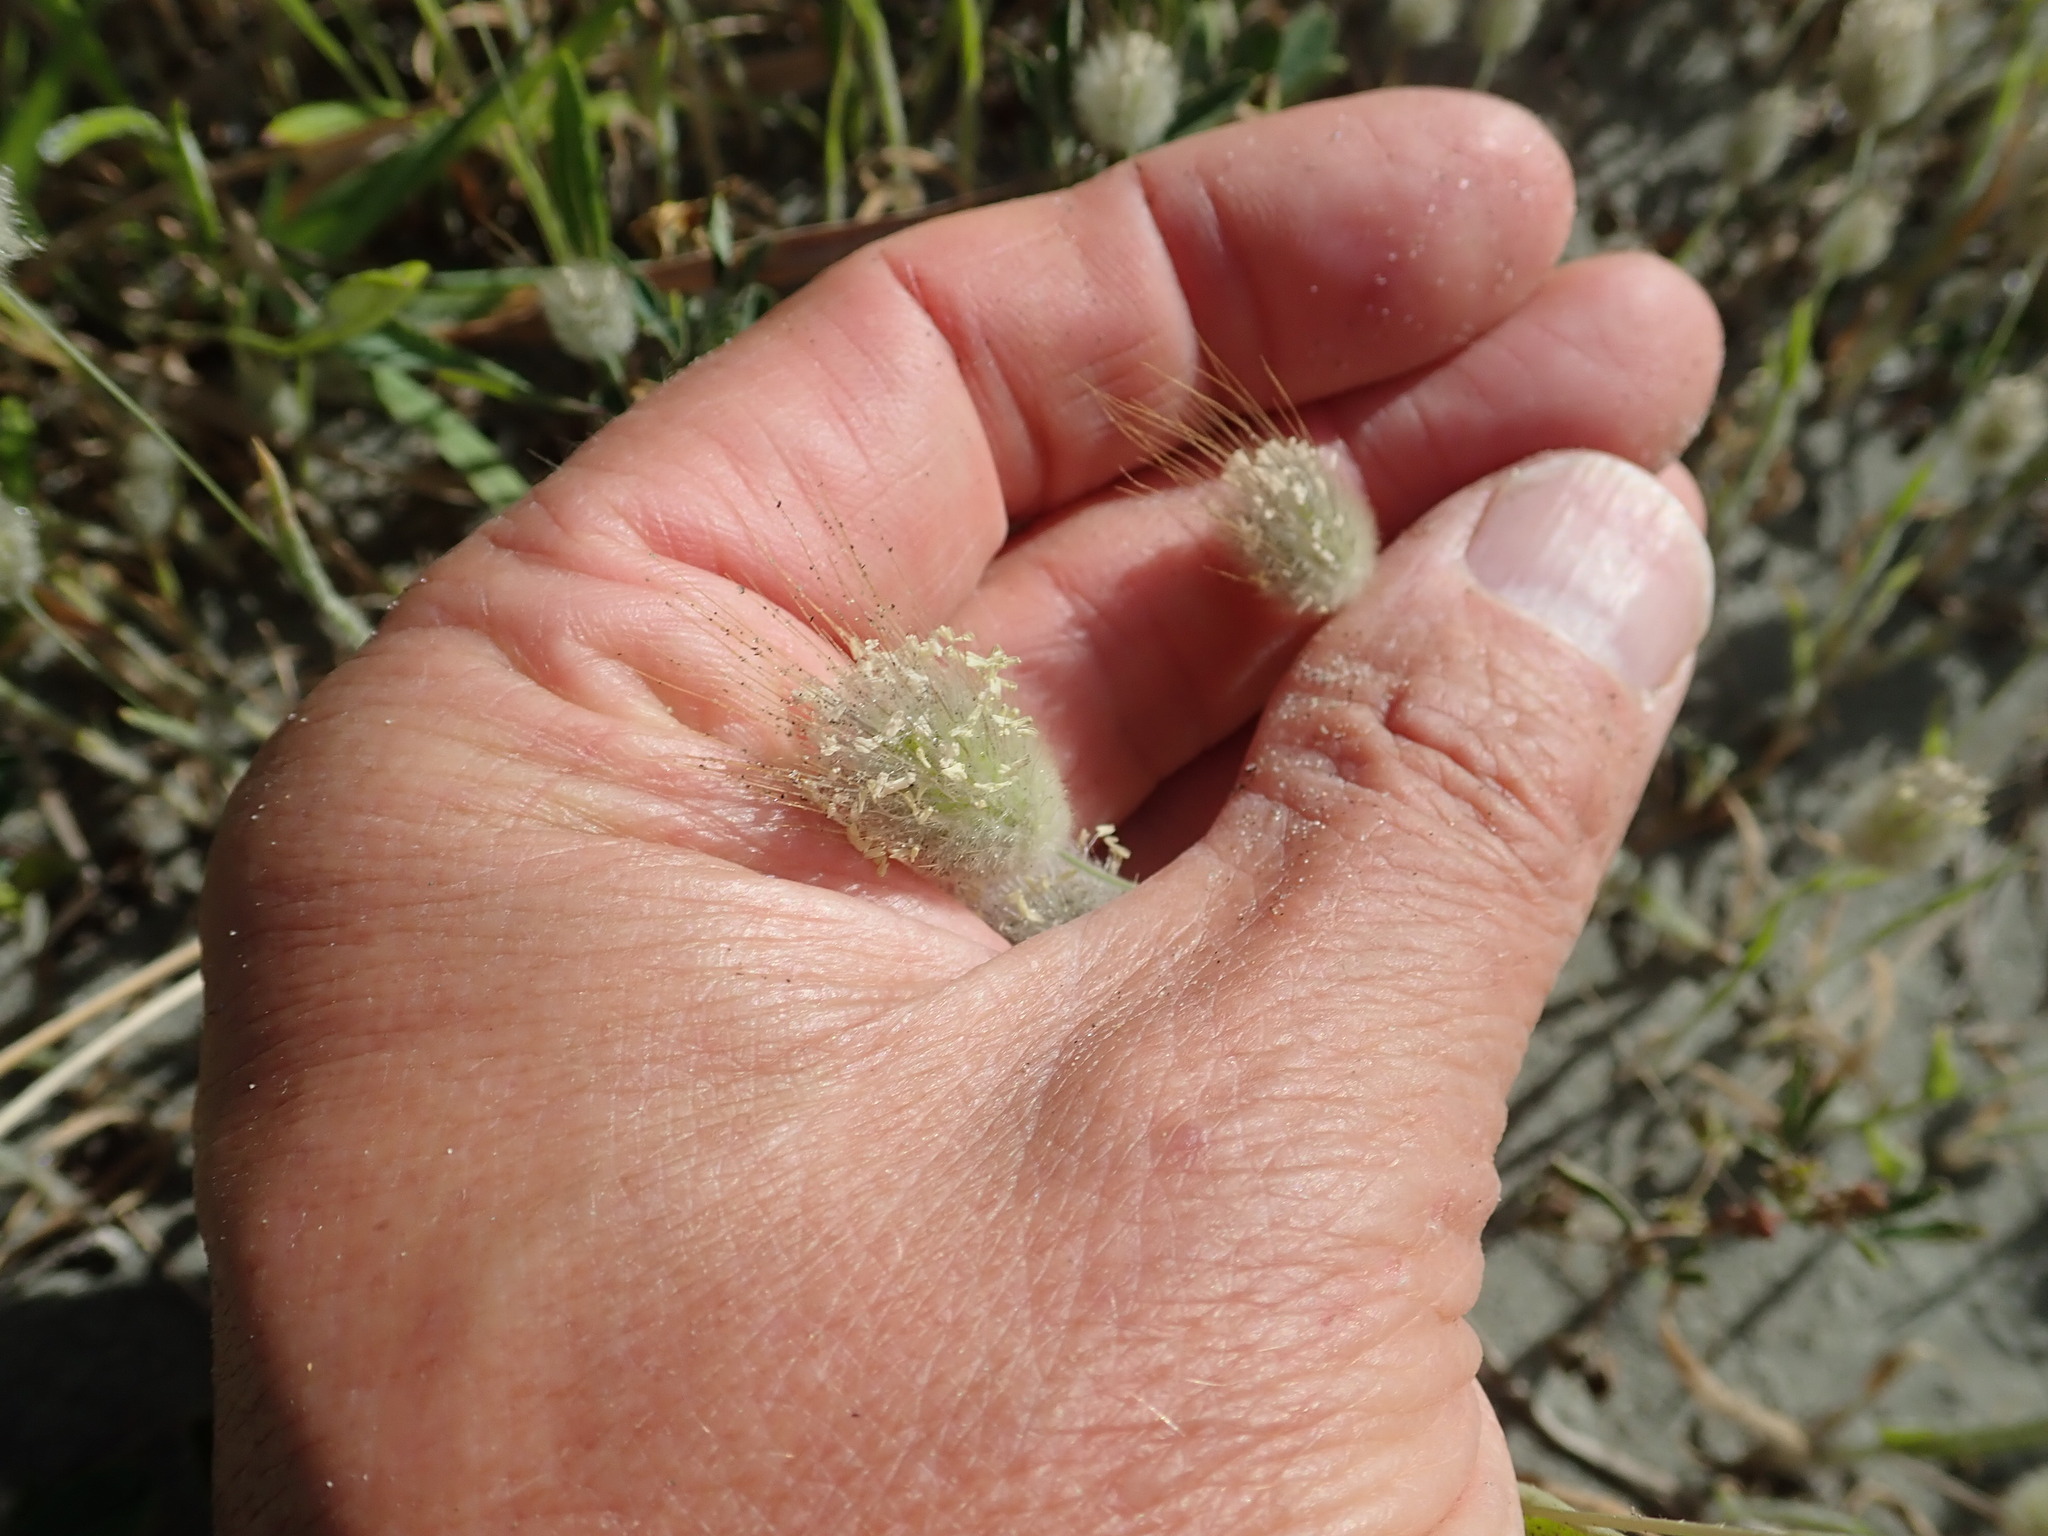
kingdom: Plantae
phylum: Tracheophyta
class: Liliopsida
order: Poales
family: Poaceae
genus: Lagurus
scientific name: Lagurus ovatus
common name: Hare's-tail
